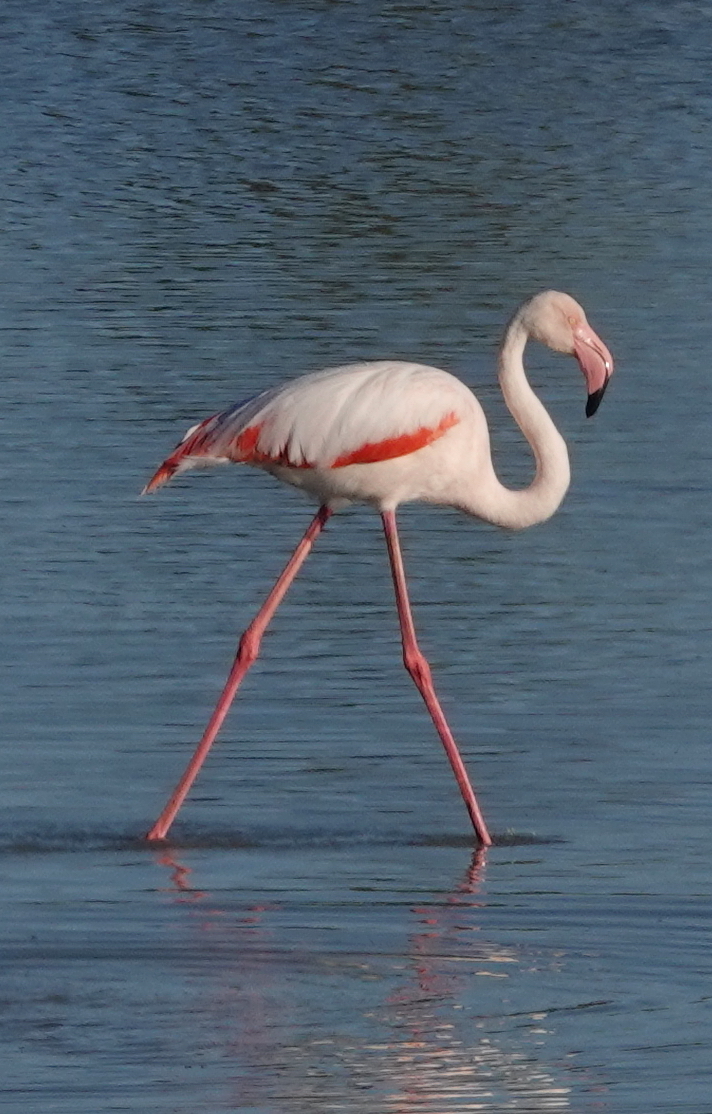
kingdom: Animalia
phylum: Chordata
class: Aves
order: Phoenicopteriformes
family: Phoenicopteridae
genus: Phoenicopterus
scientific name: Phoenicopterus roseus
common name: Greater flamingo
